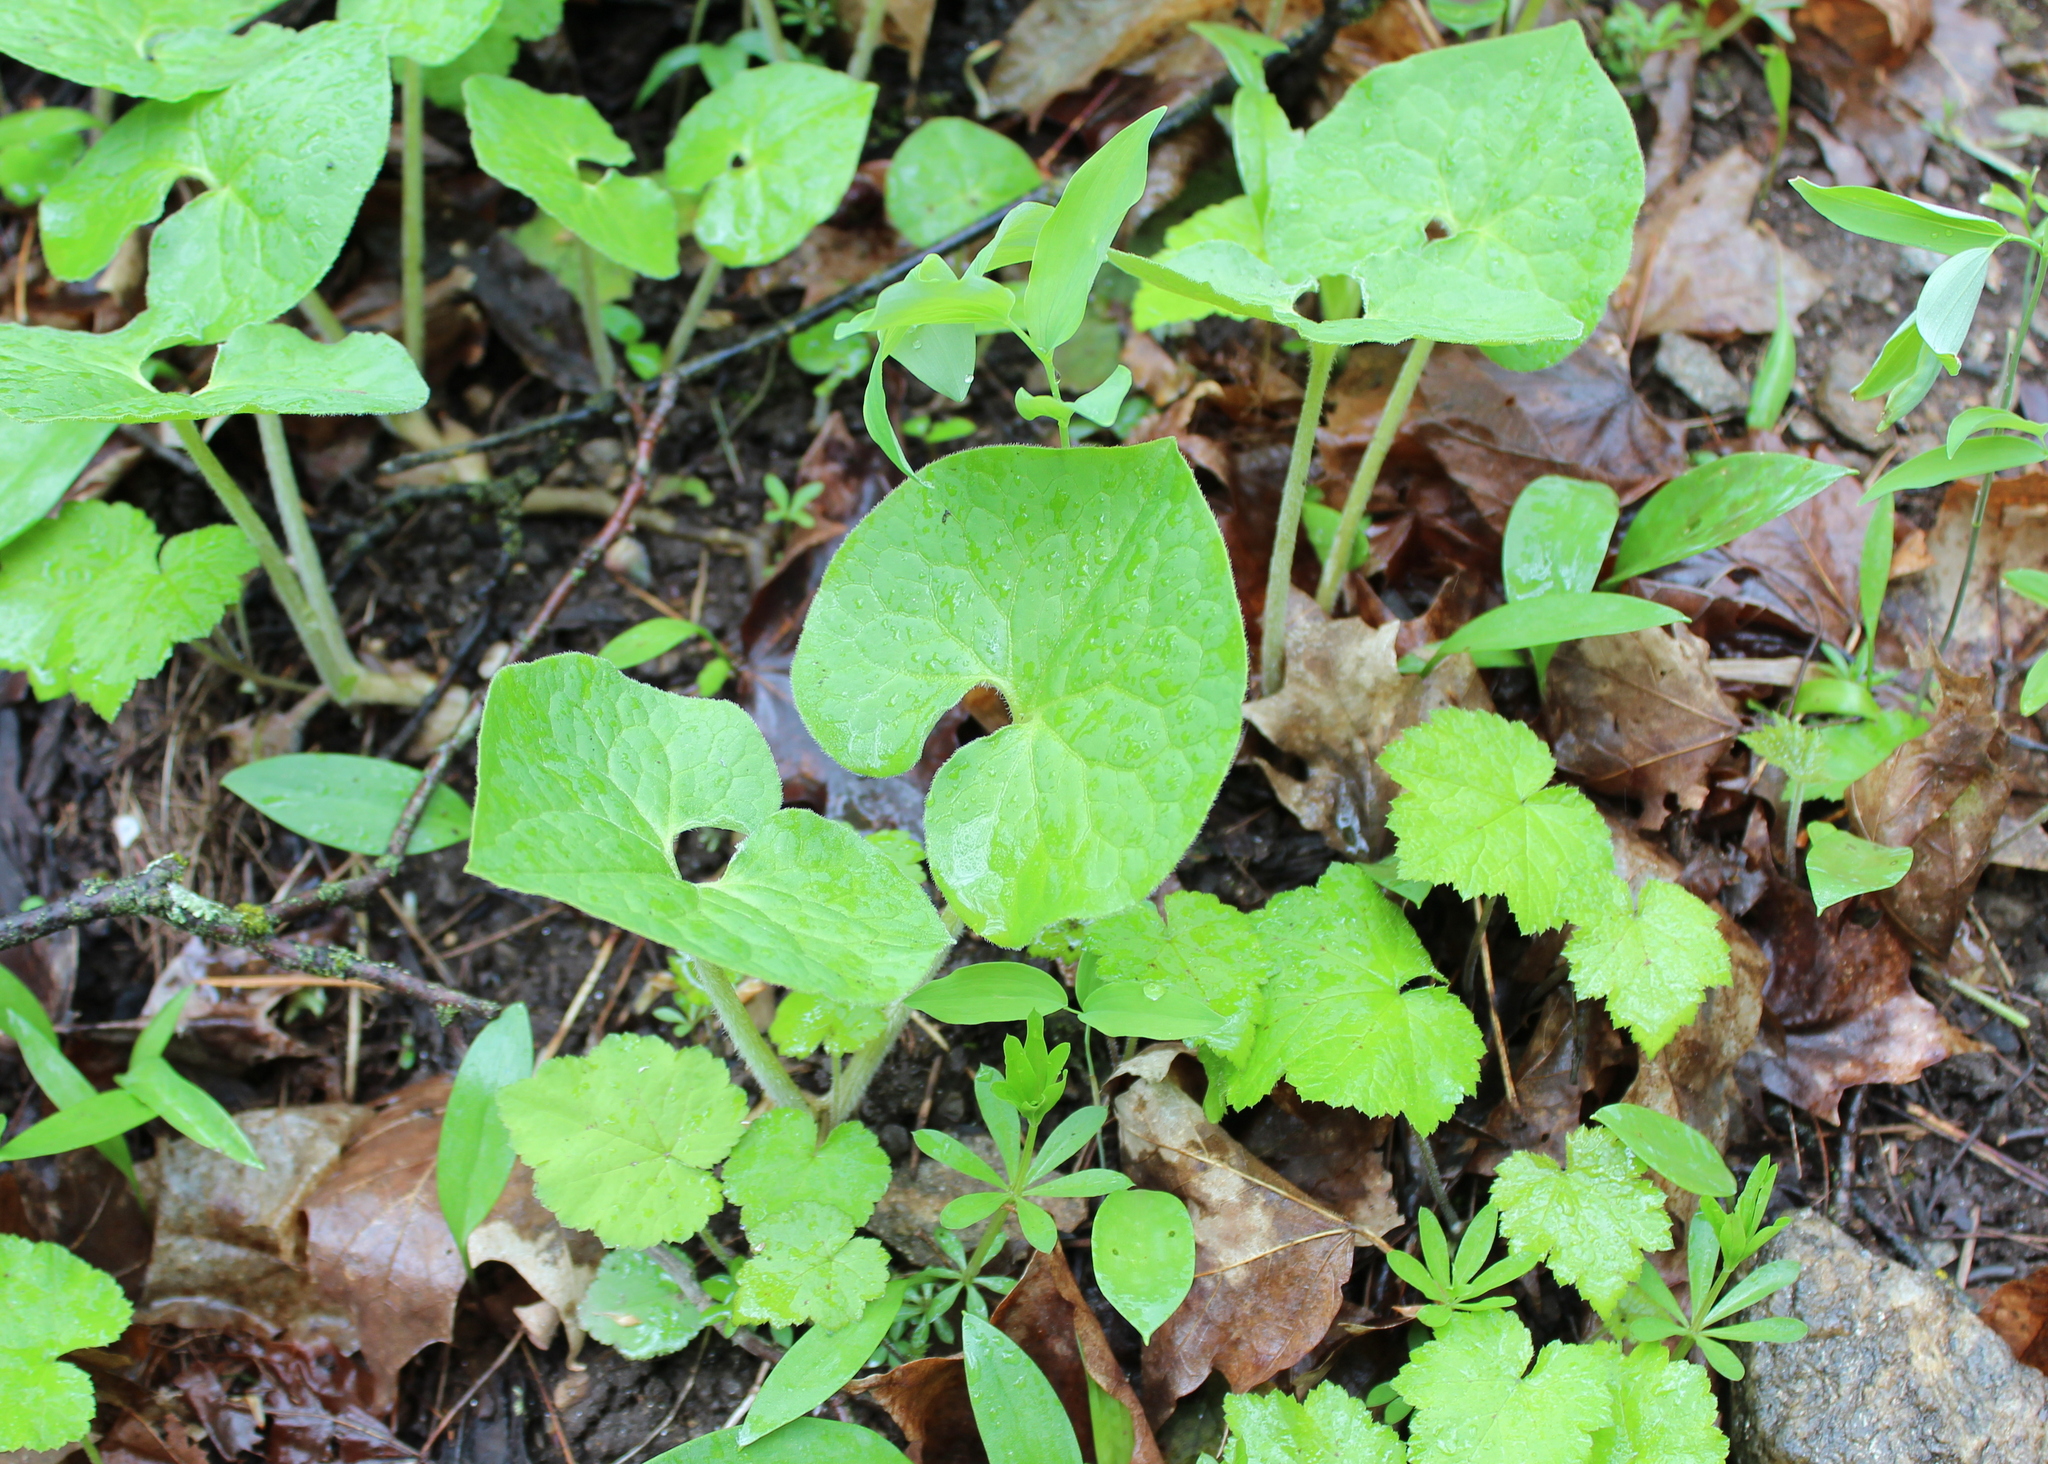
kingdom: Plantae
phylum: Tracheophyta
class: Magnoliopsida
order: Piperales
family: Aristolochiaceae
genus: Asarum
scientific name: Asarum canadense
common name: Wild ginger
